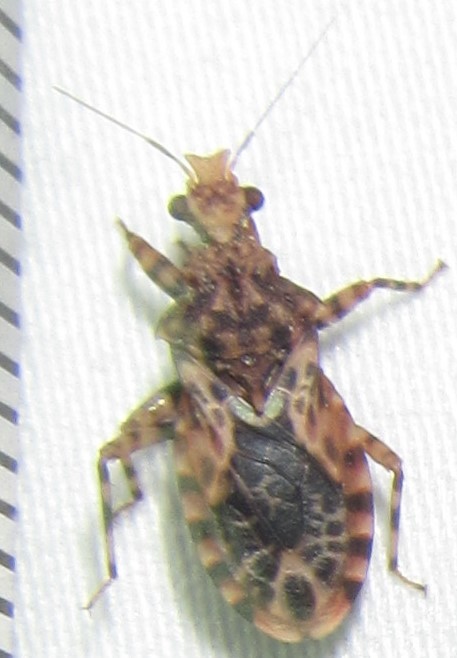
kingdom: Animalia
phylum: Arthropoda
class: Insecta
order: Hemiptera
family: Reduviidae
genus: Cethera
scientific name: Cethera musiva
